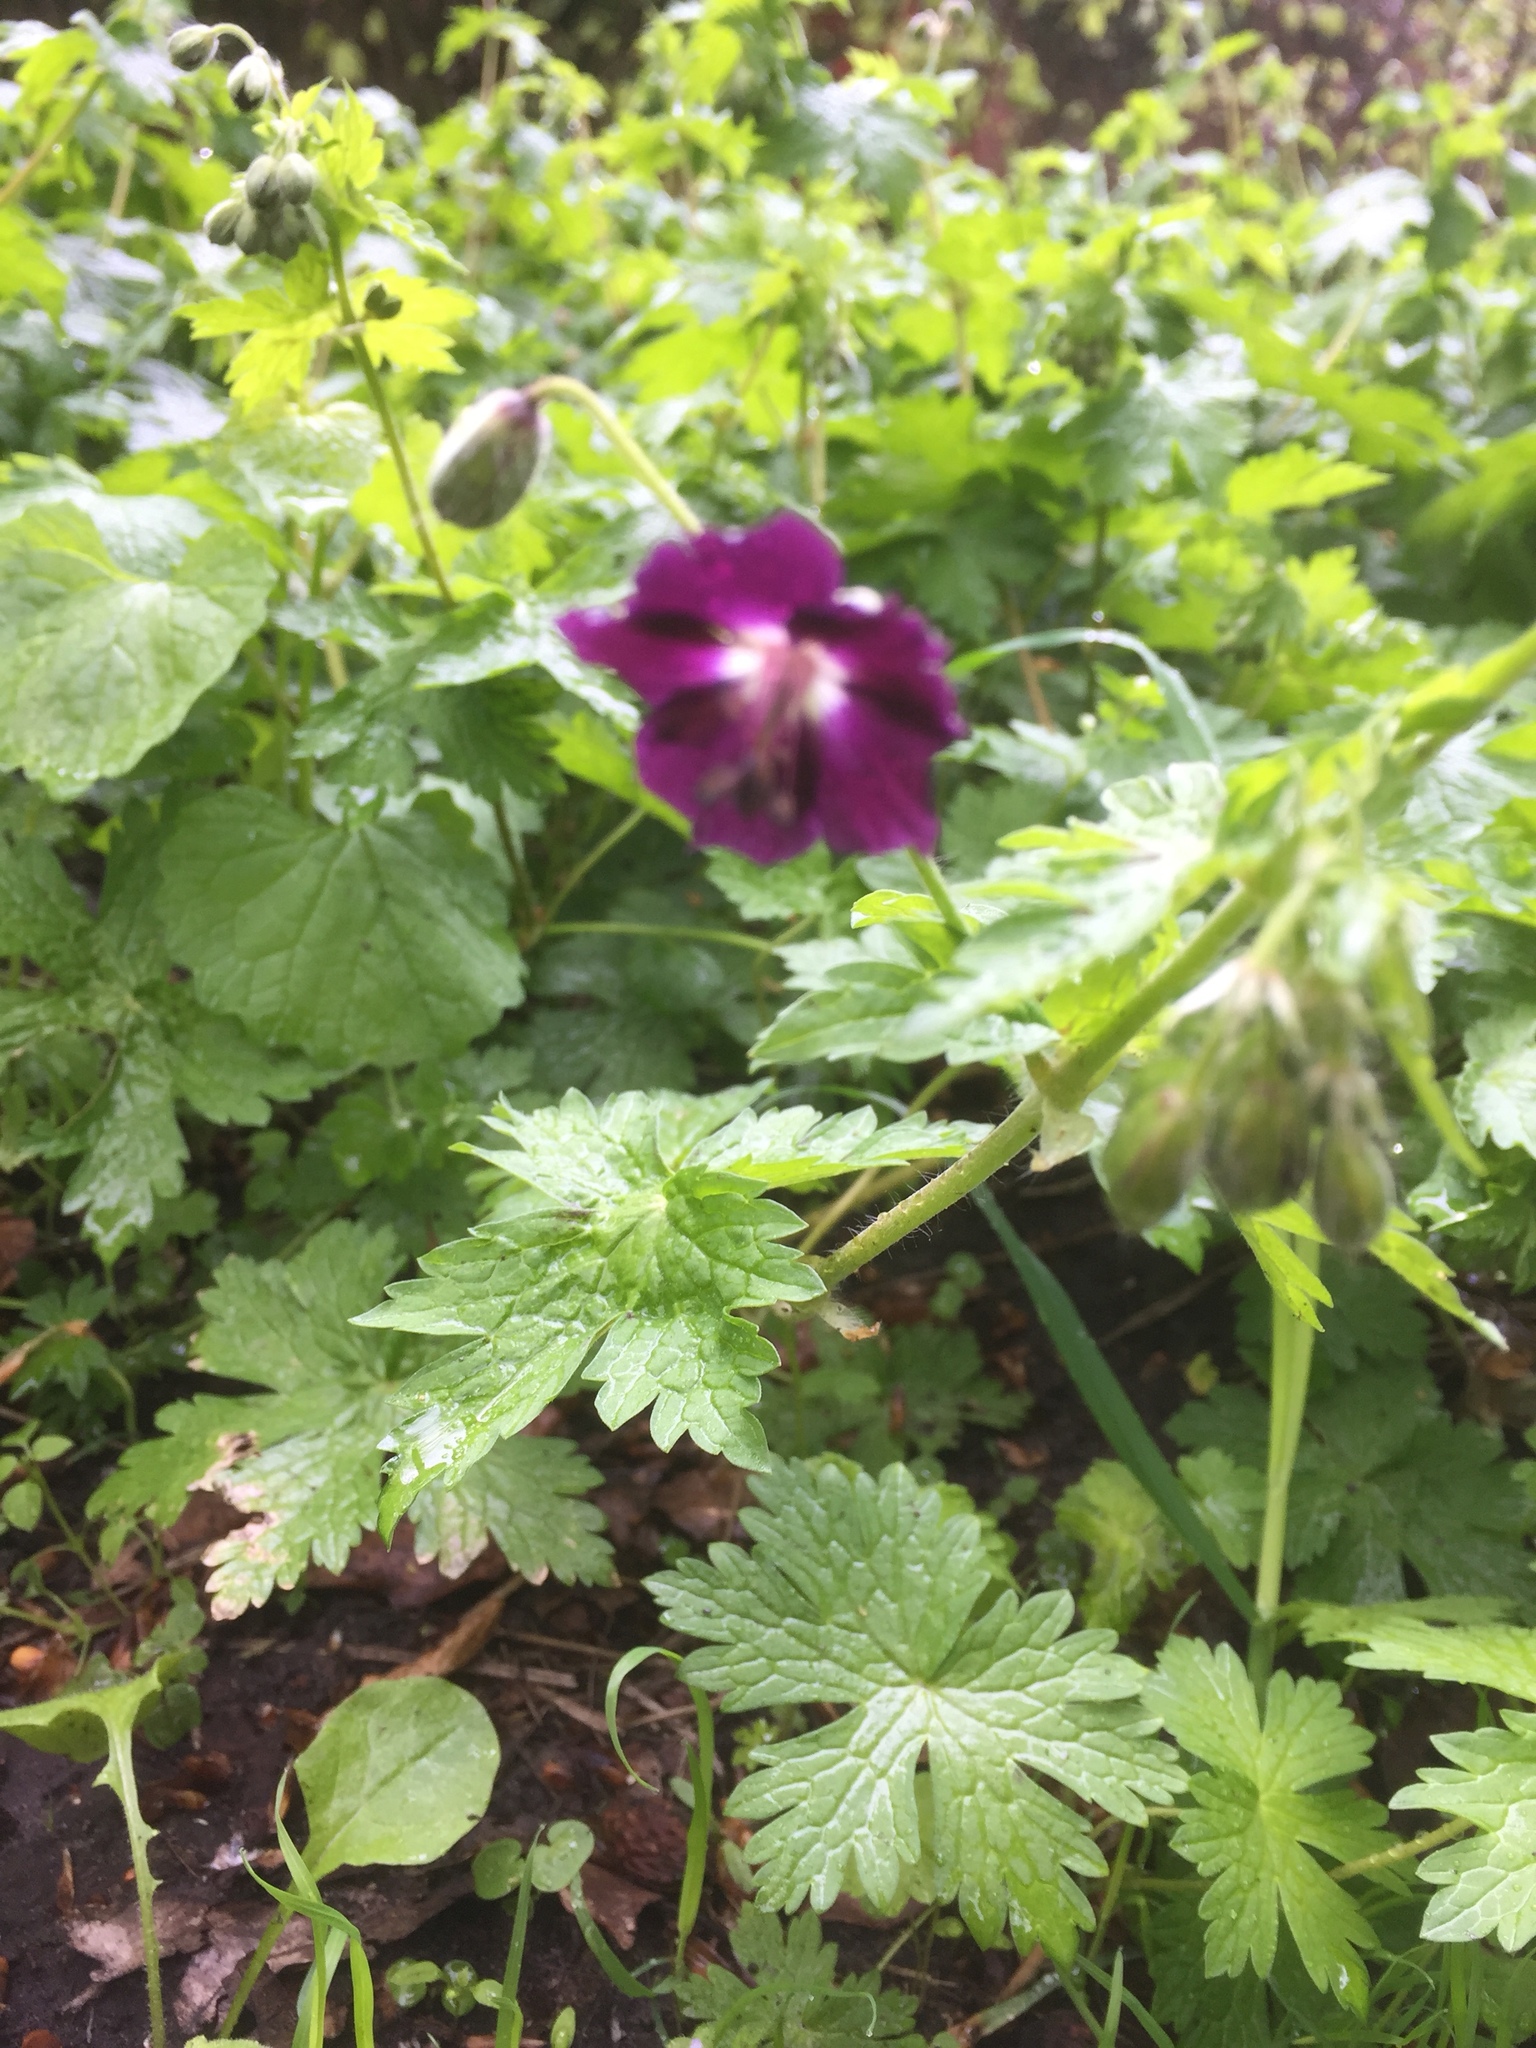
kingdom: Plantae
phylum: Tracheophyta
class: Magnoliopsida
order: Geraniales
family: Geraniaceae
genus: Geranium
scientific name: Geranium phaeum
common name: Dusky crane's-bill
